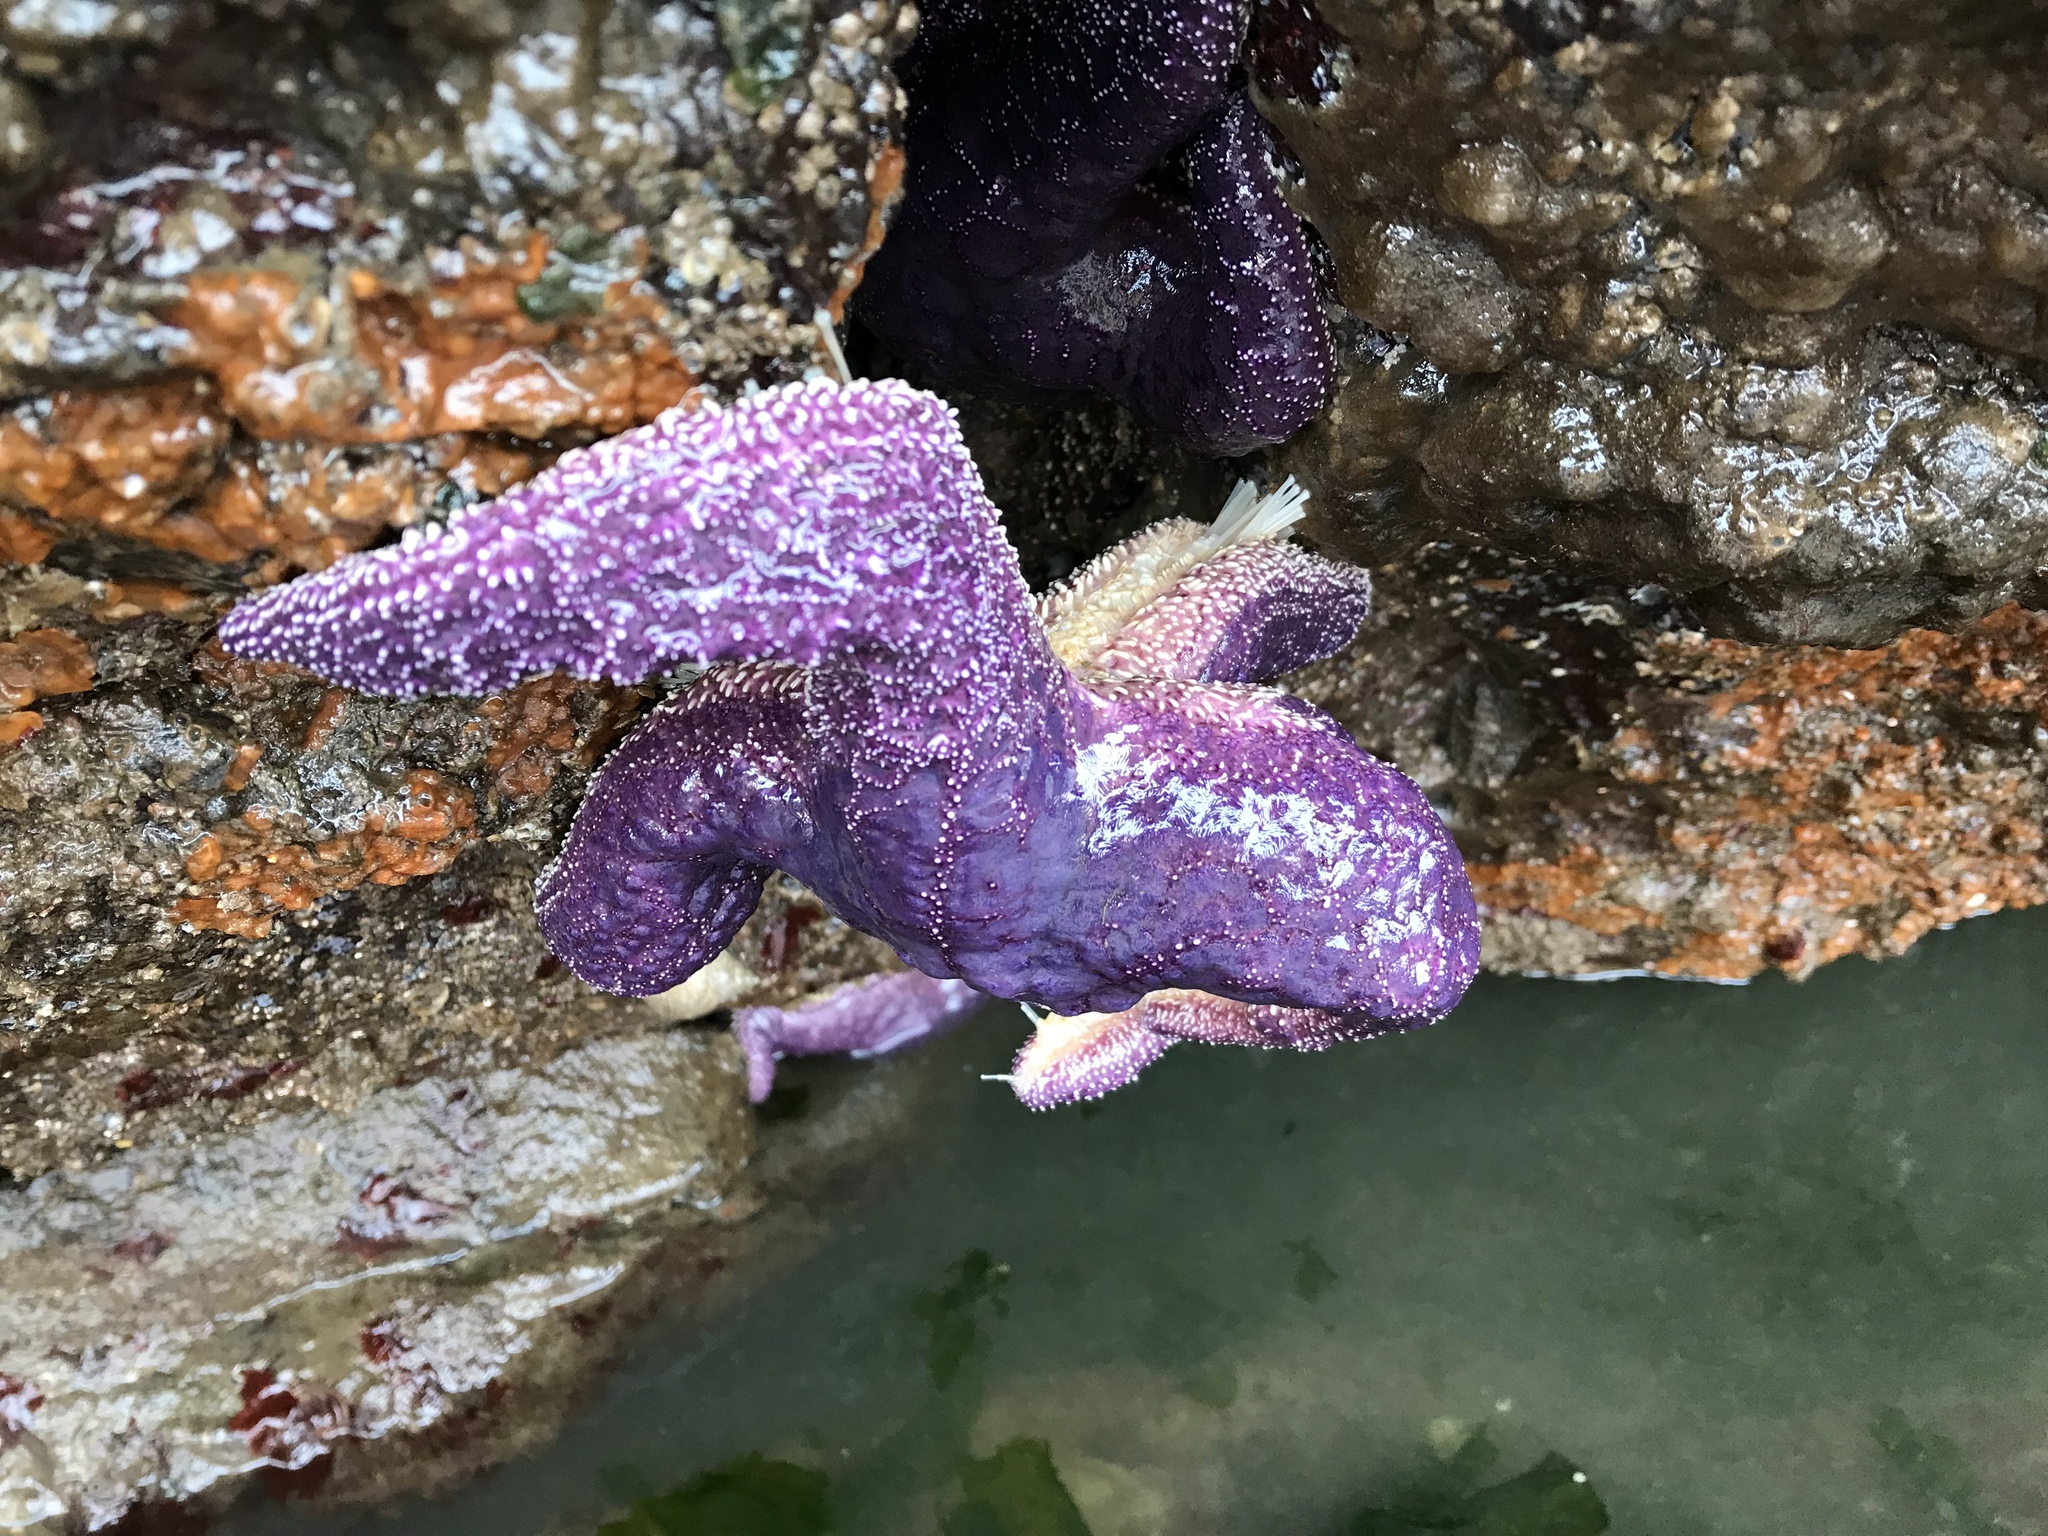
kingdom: Animalia
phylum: Echinodermata
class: Asteroidea
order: Forcipulatida
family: Asteriidae
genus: Pisaster
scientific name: Pisaster ochraceus
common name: Ochre stars
